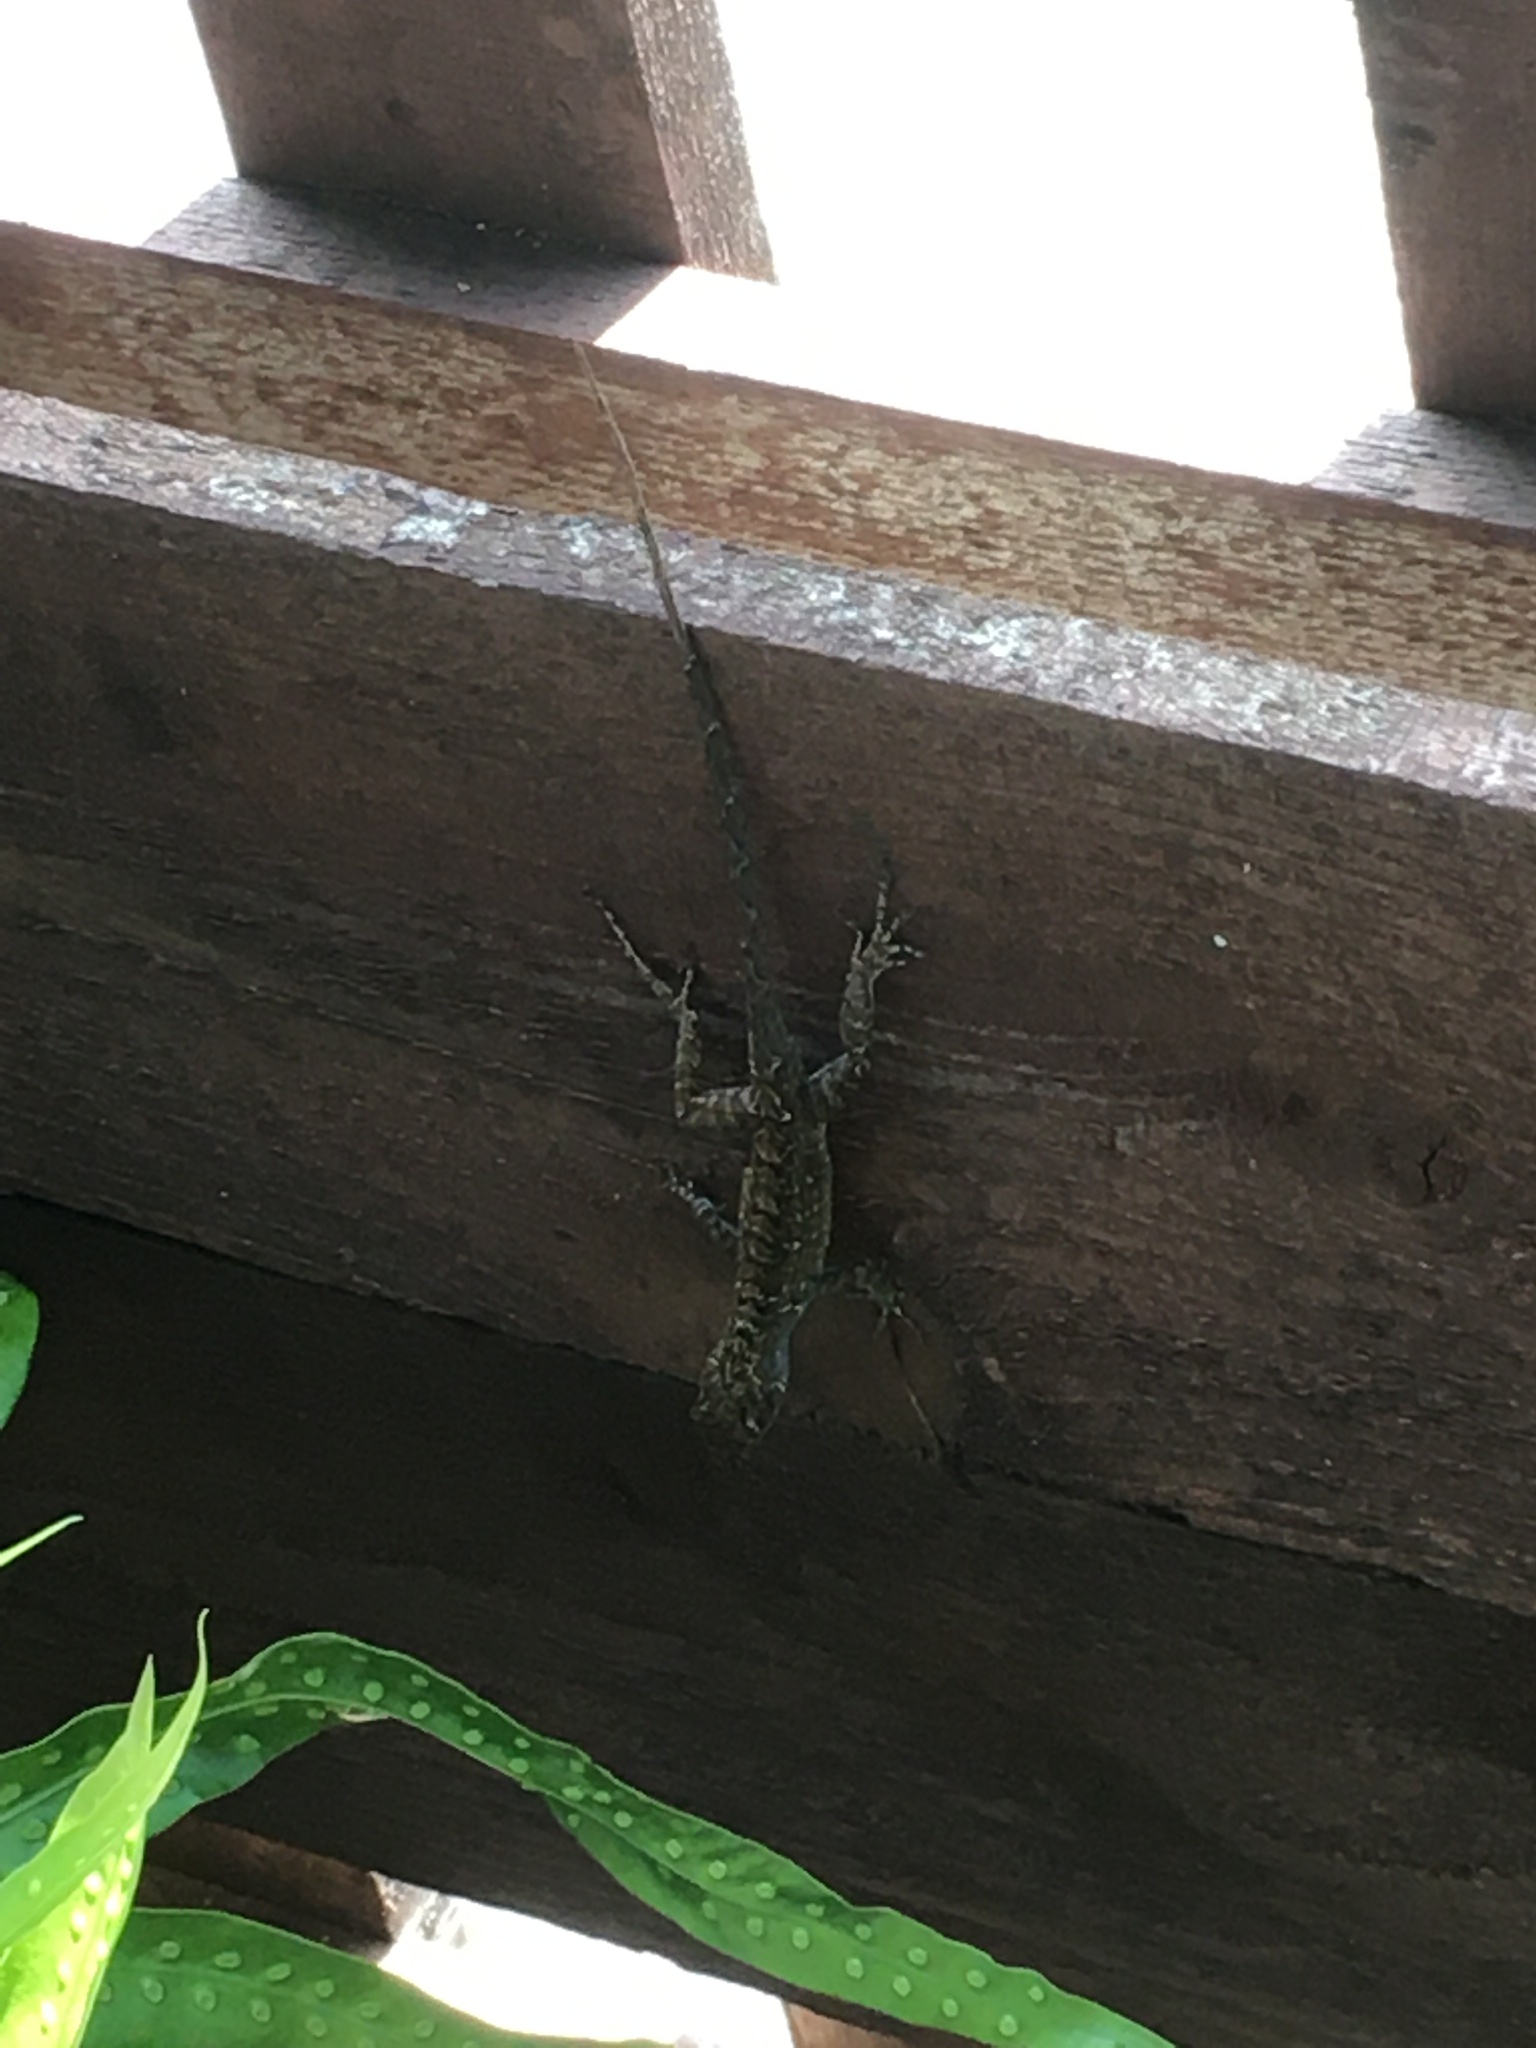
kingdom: Animalia
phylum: Chordata
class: Squamata
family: Dactyloidae
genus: Anolis
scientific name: Anolis sagrei
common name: Brown anole
